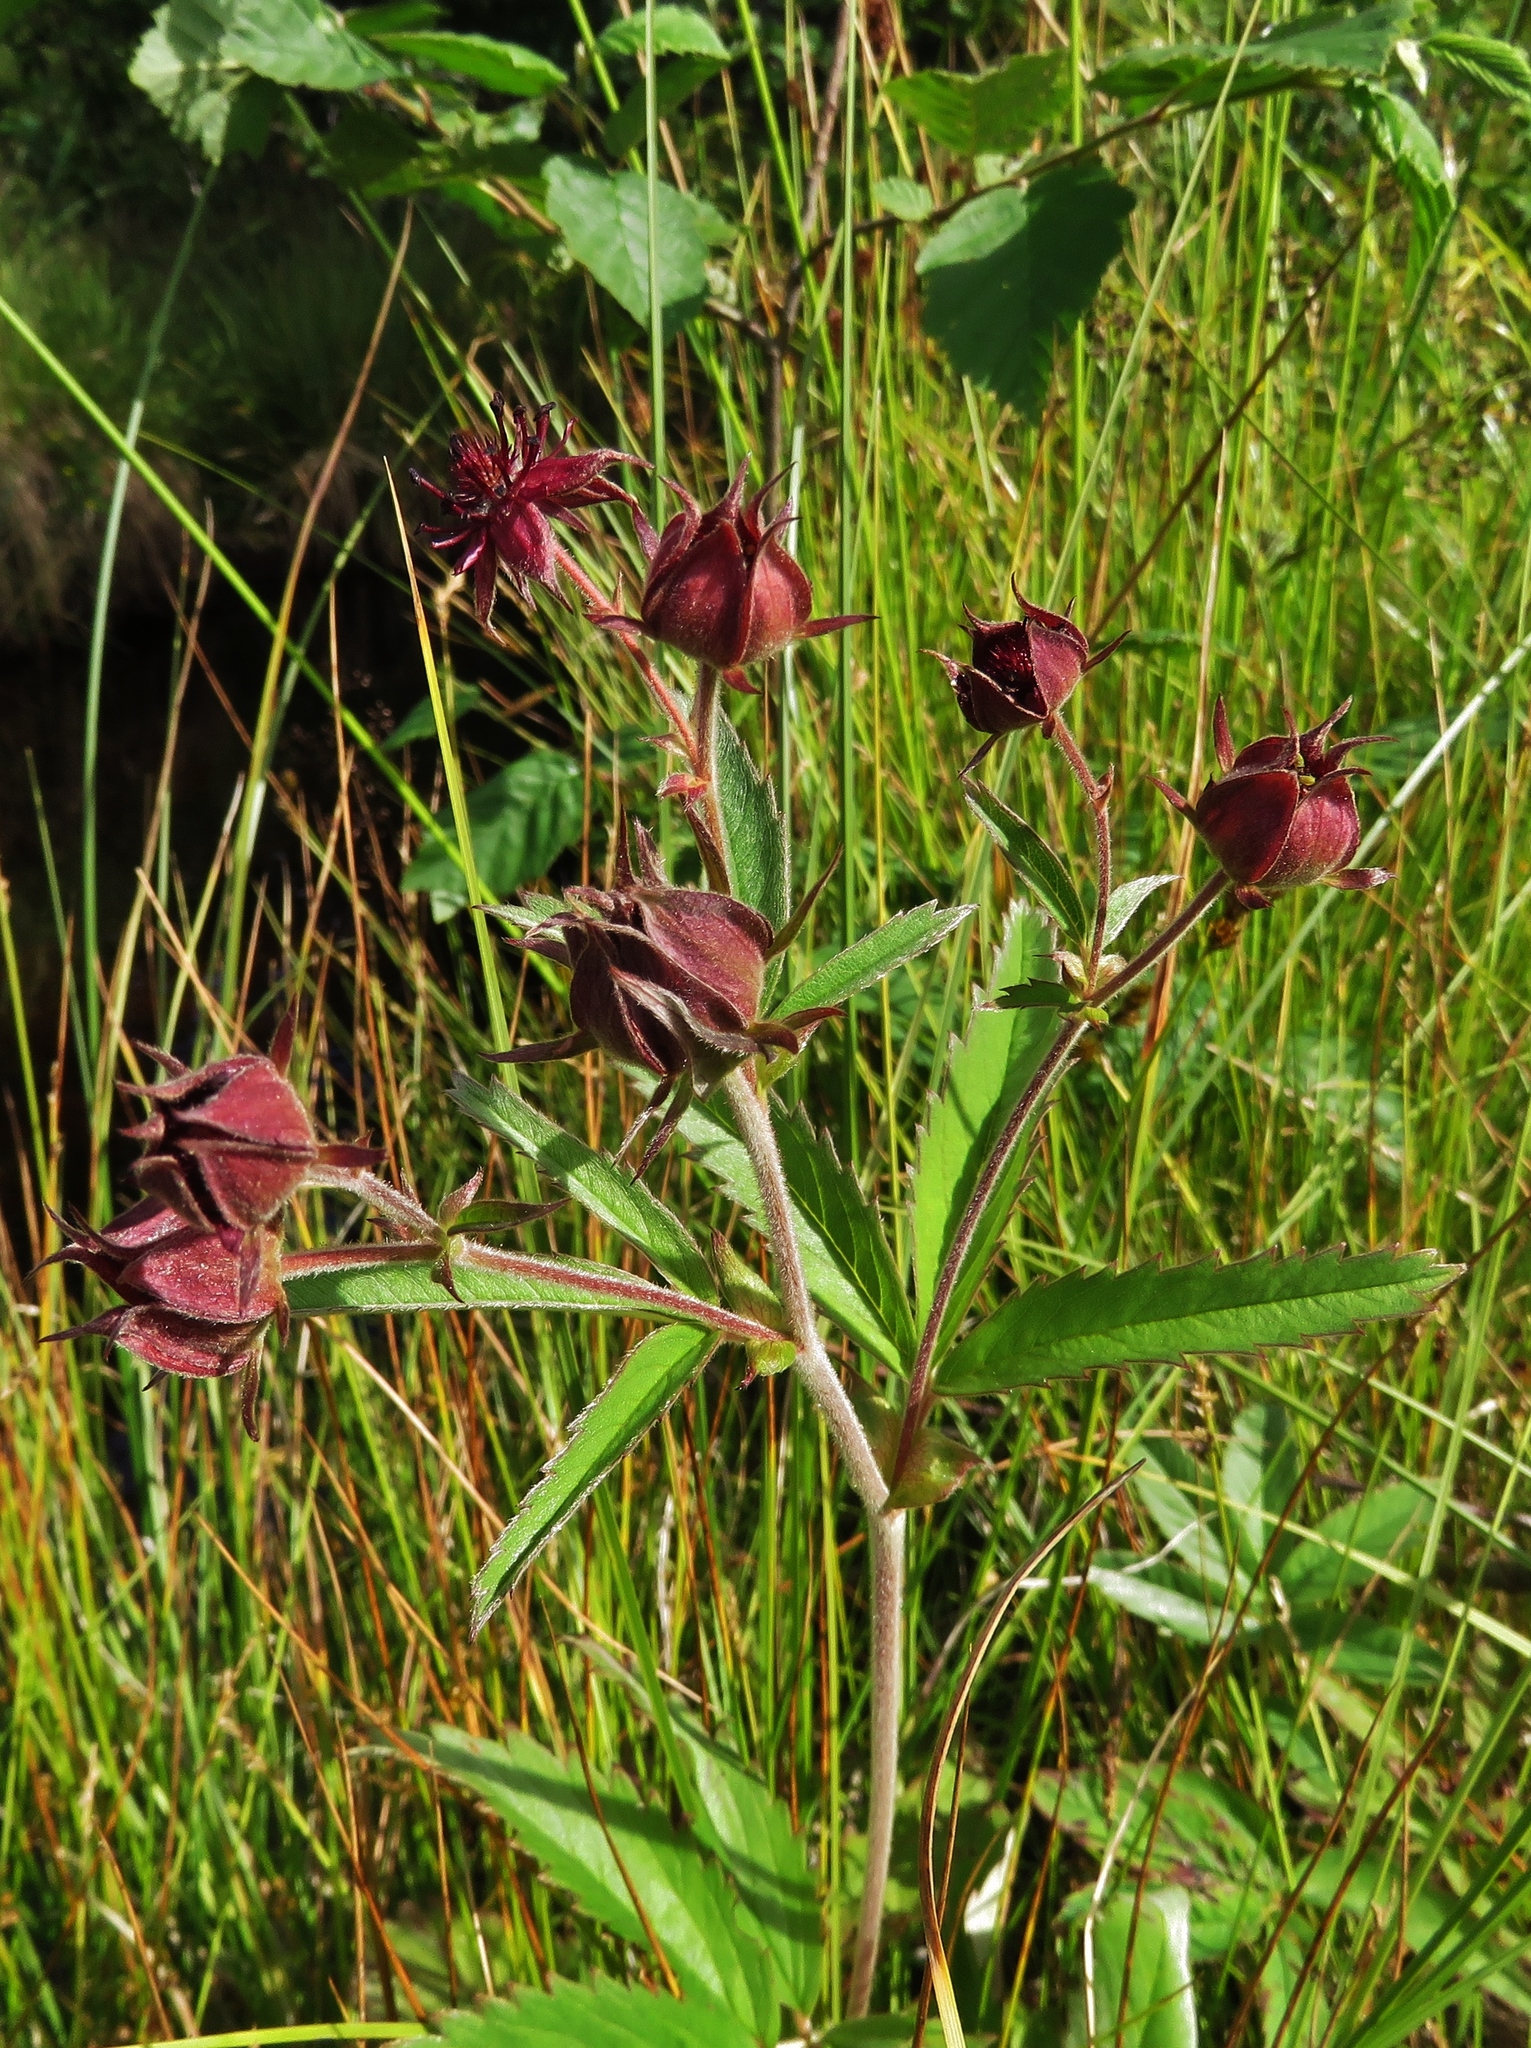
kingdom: Plantae
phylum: Tracheophyta
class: Magnoliopsida
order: Rosales
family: Rosaceae
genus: Comarum
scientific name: Comarum palustre
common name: Marsh cinquefoil
